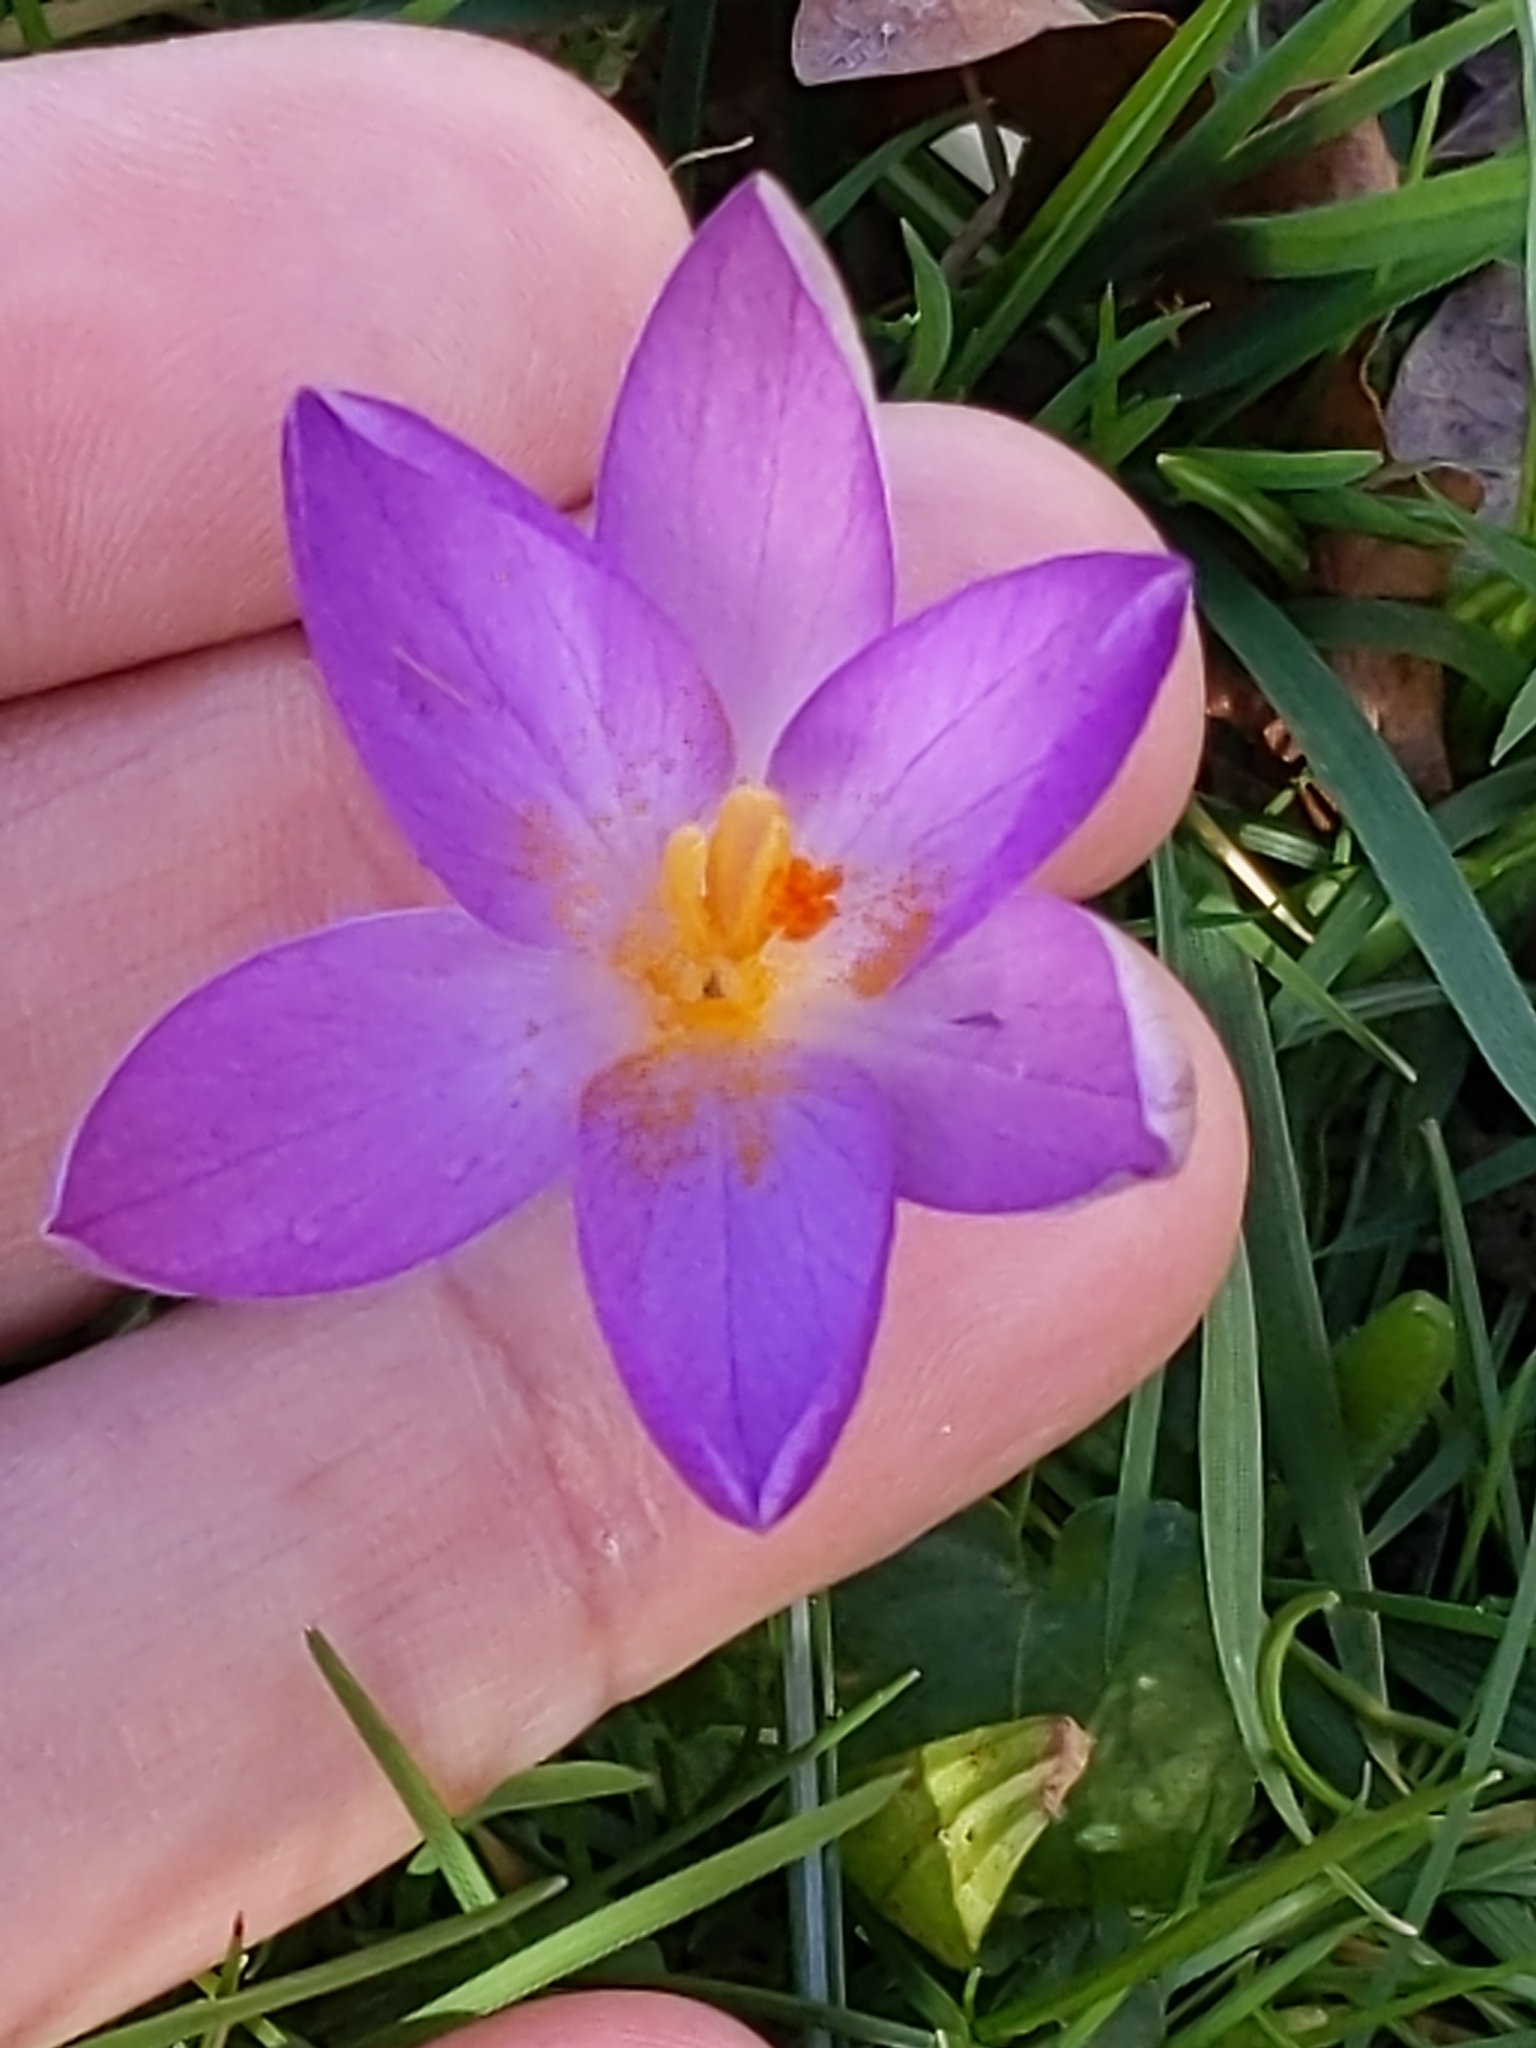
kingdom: Plantae
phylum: Tracheophyta
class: Liliopsida
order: Asparagales
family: Iridaceae
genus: Crocus
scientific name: Crocus tommasinianus
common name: Early crocus
